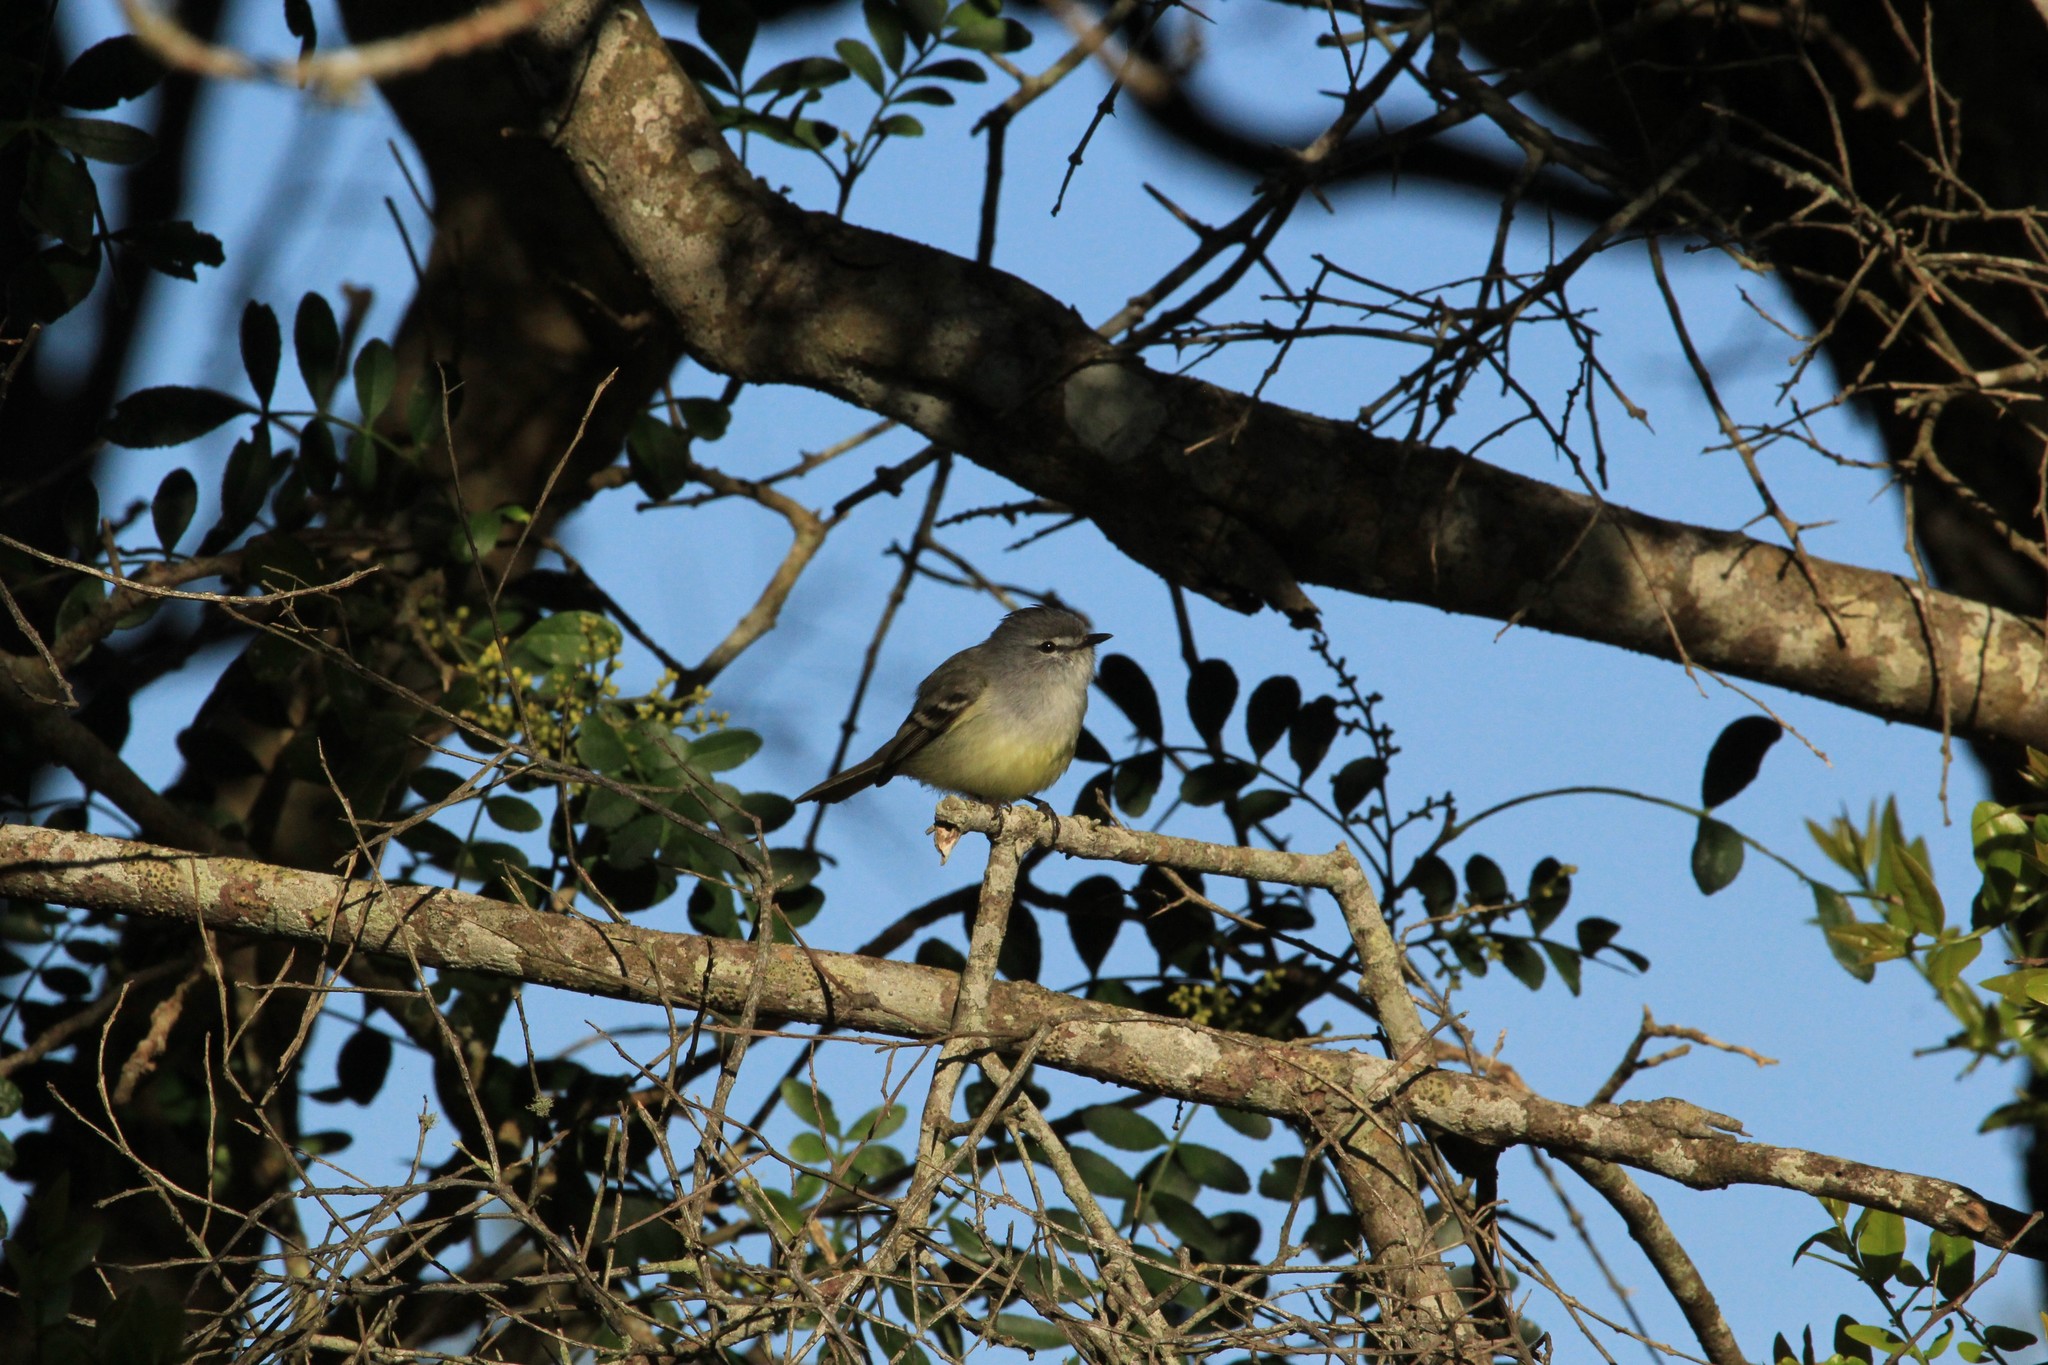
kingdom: Animalia
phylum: Chordata
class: Aves
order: Passeriformes
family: Tyrannidae
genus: Serpophaga
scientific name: Serpophaga subcristata
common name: White-crested tyrannulet
